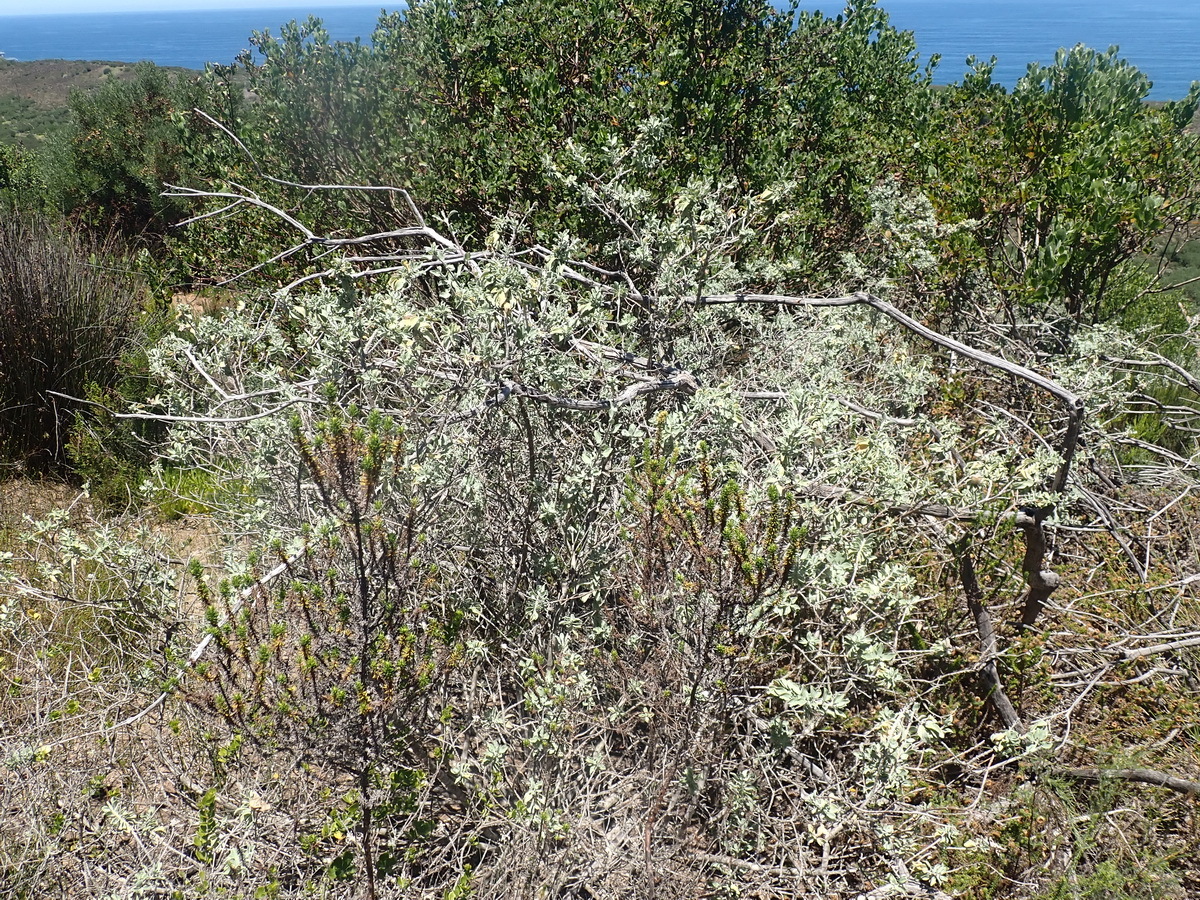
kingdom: Plantae
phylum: Tracheophyta
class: Magnoliopsida
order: Lamiales
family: Lamiaceae
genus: Salvia
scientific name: Salvia aurea
